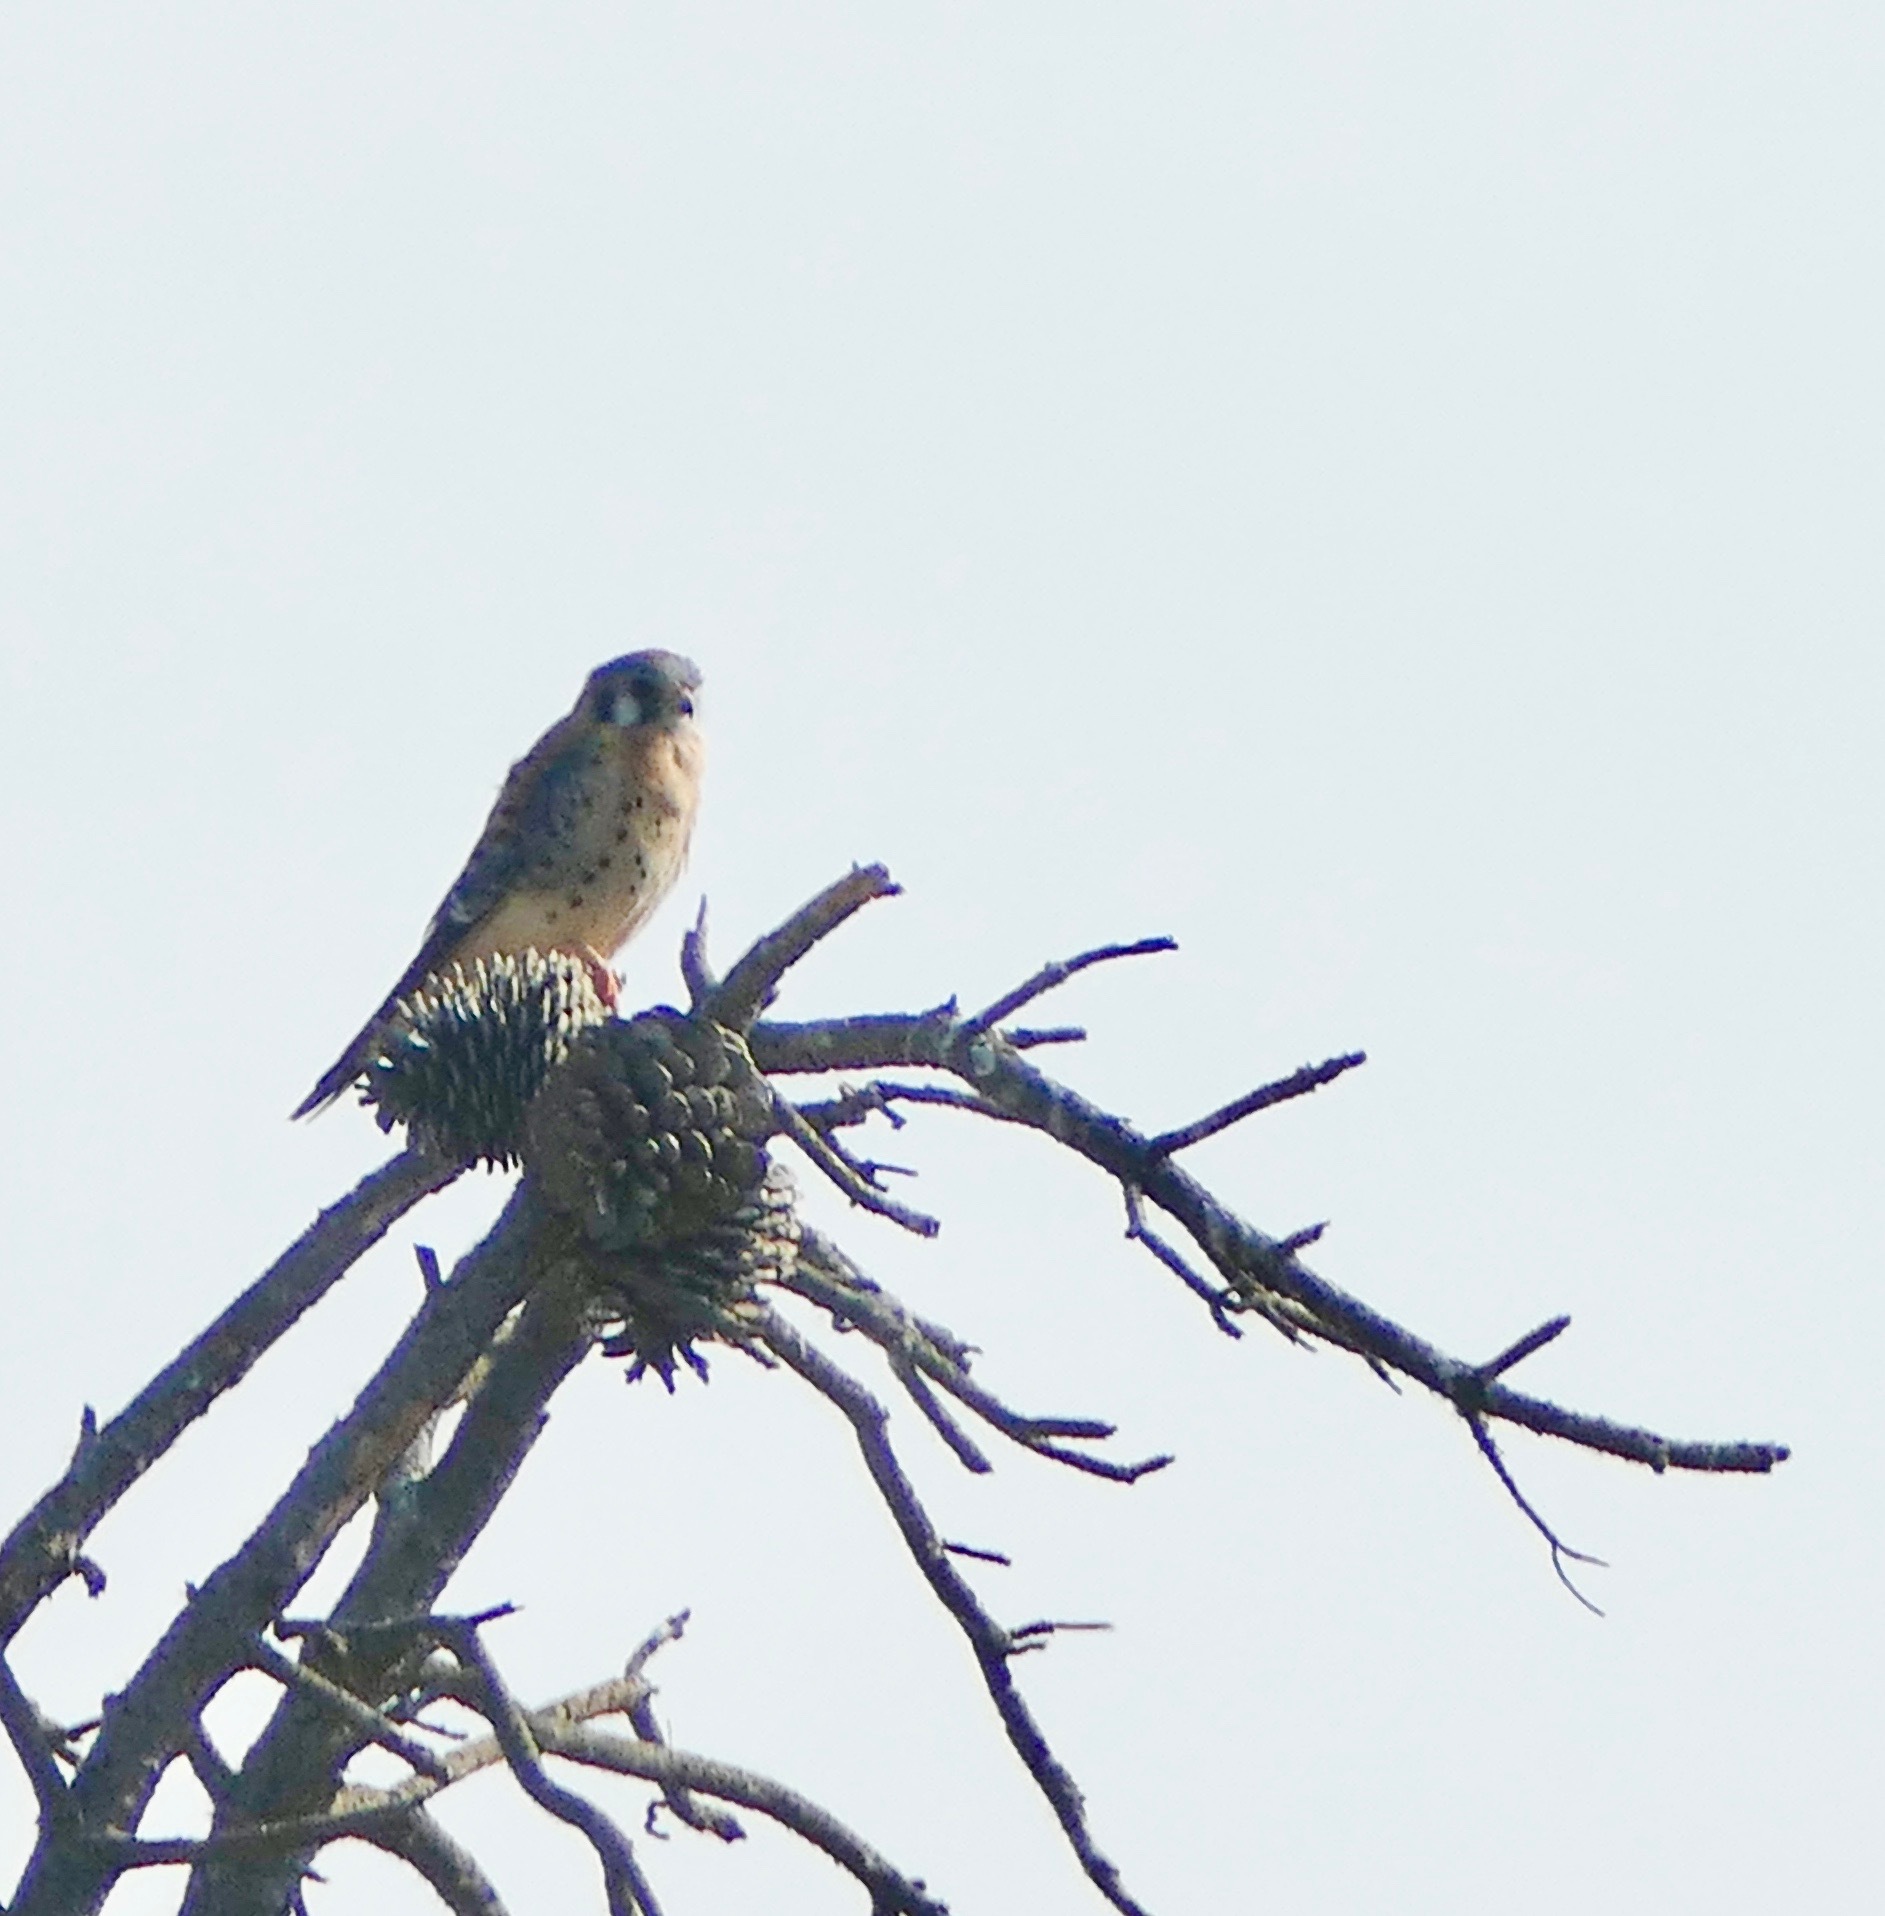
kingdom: Animalia
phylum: Chordata
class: Aves
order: Falconiformes
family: Falconidae
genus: Falco
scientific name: Falco sparverius
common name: American kestrel
